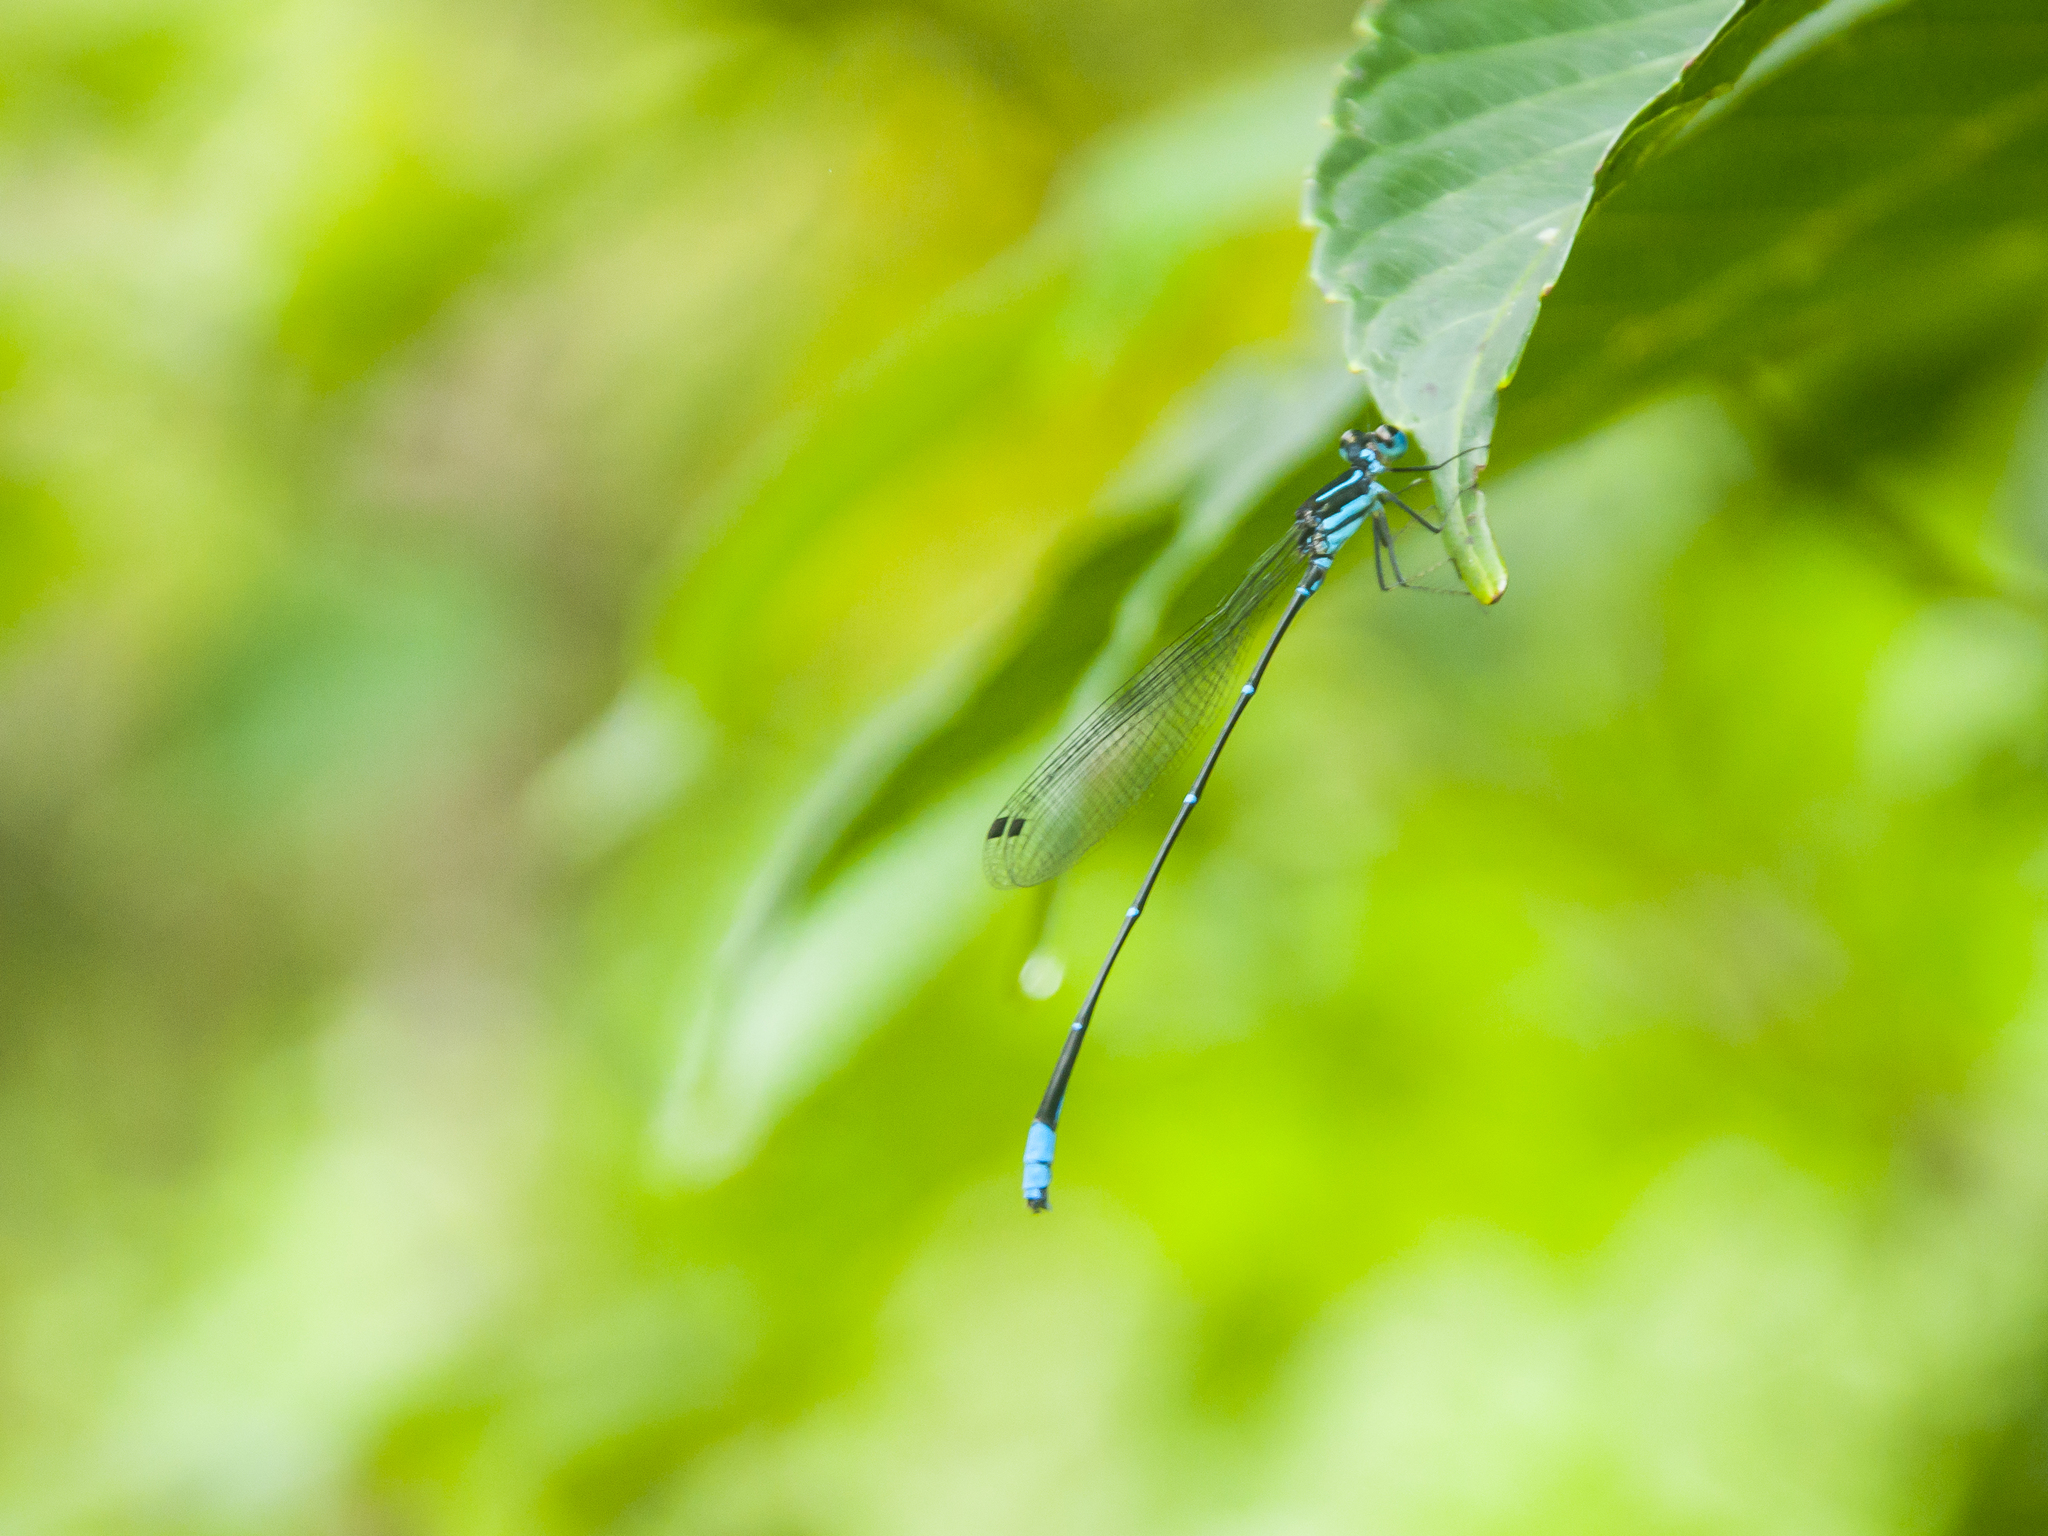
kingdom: Animalia
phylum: Arthropoda
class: Insecta
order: Odonata
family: Platycnemididae
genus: Caconeura
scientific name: Caconeura ramburi
